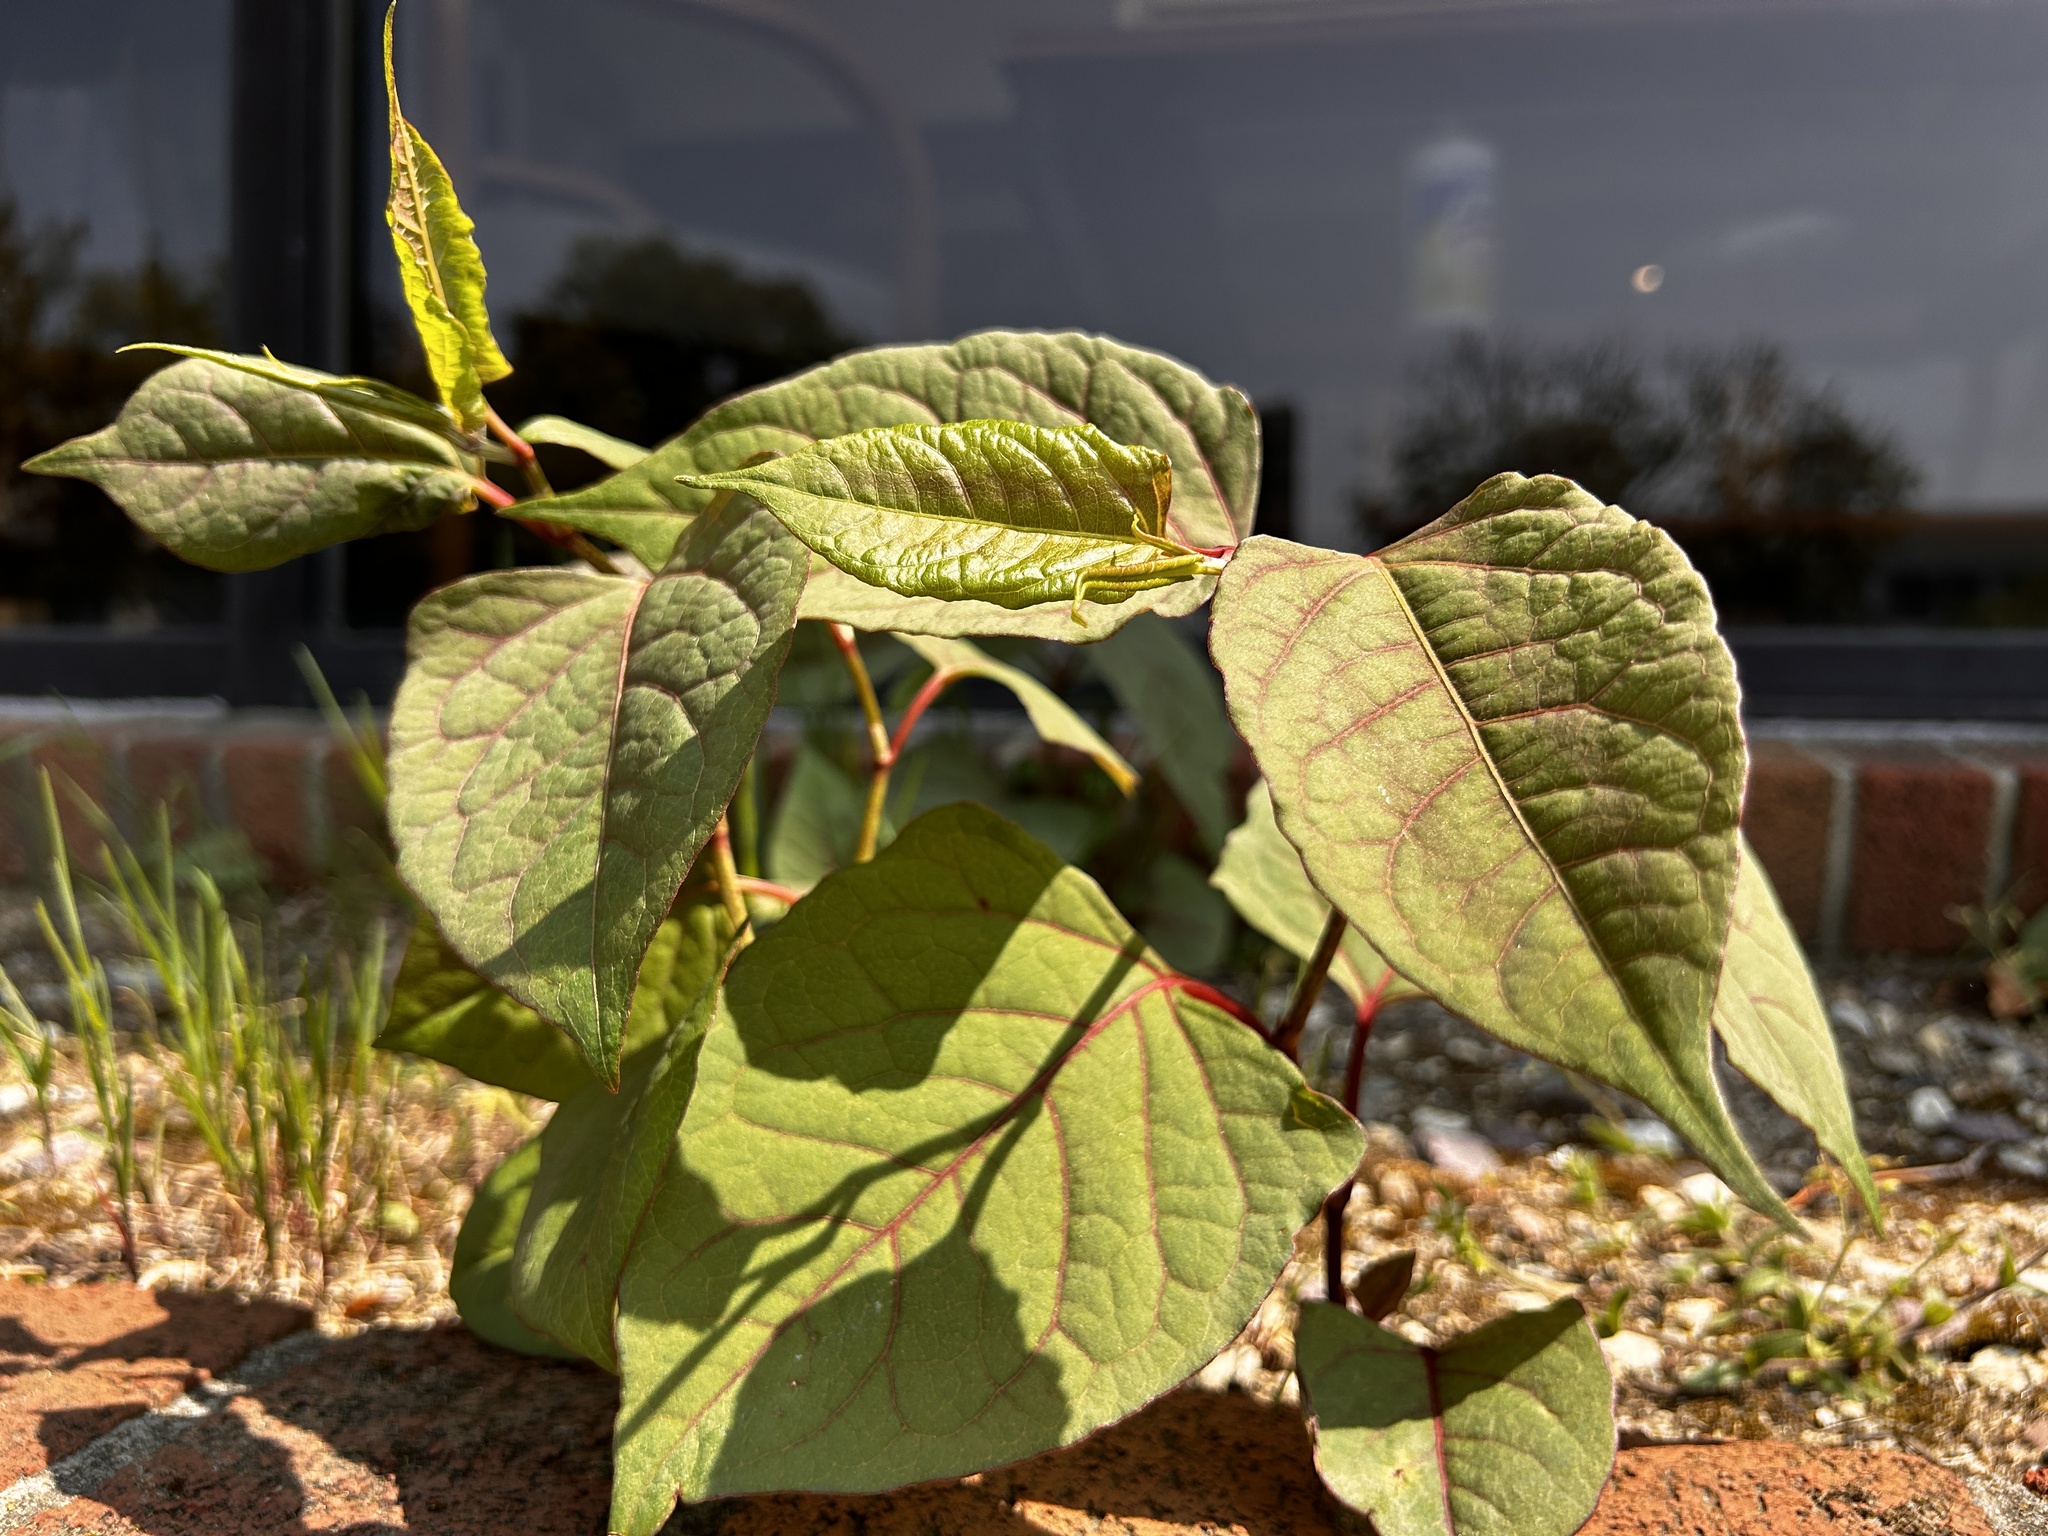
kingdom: Plantae
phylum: Tracheophyta
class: Magnoliopsida
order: Caryophyllales
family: Polygonaceae
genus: Reynoutria
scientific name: Reynoutria japonica
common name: Japanese knotweed
